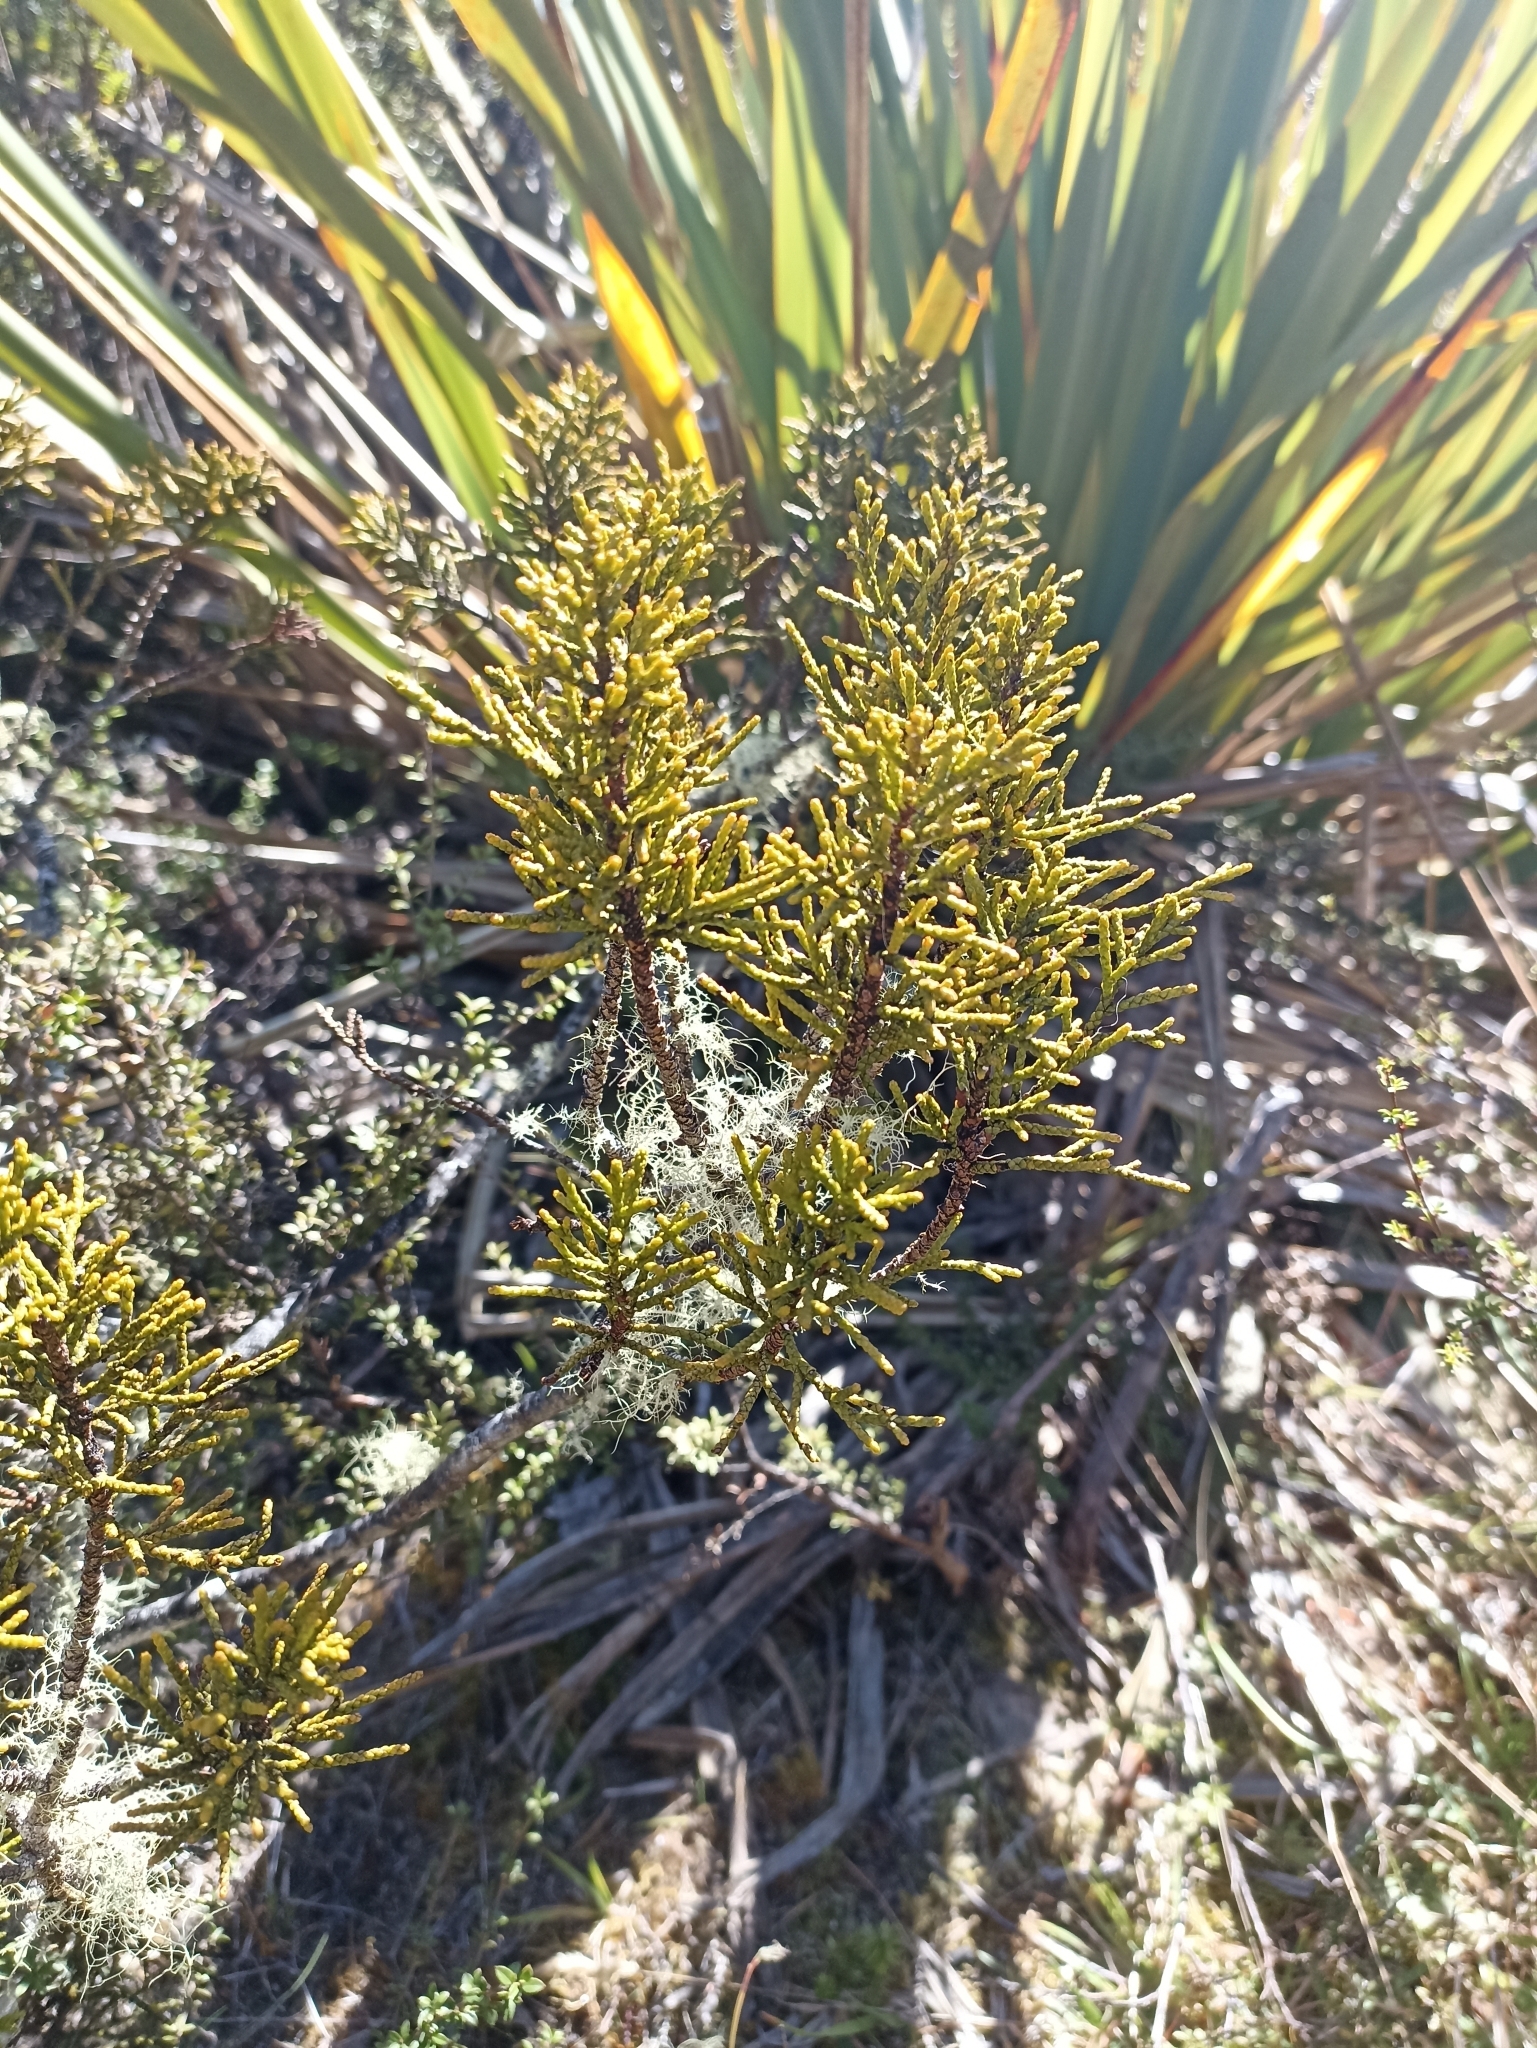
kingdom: Plantae
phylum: Tracheophyta
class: Pinopsida
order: Pinales
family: Podocarpaceae
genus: Halocarpus
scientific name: Halocarpus bidwillii
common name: Bog pine
